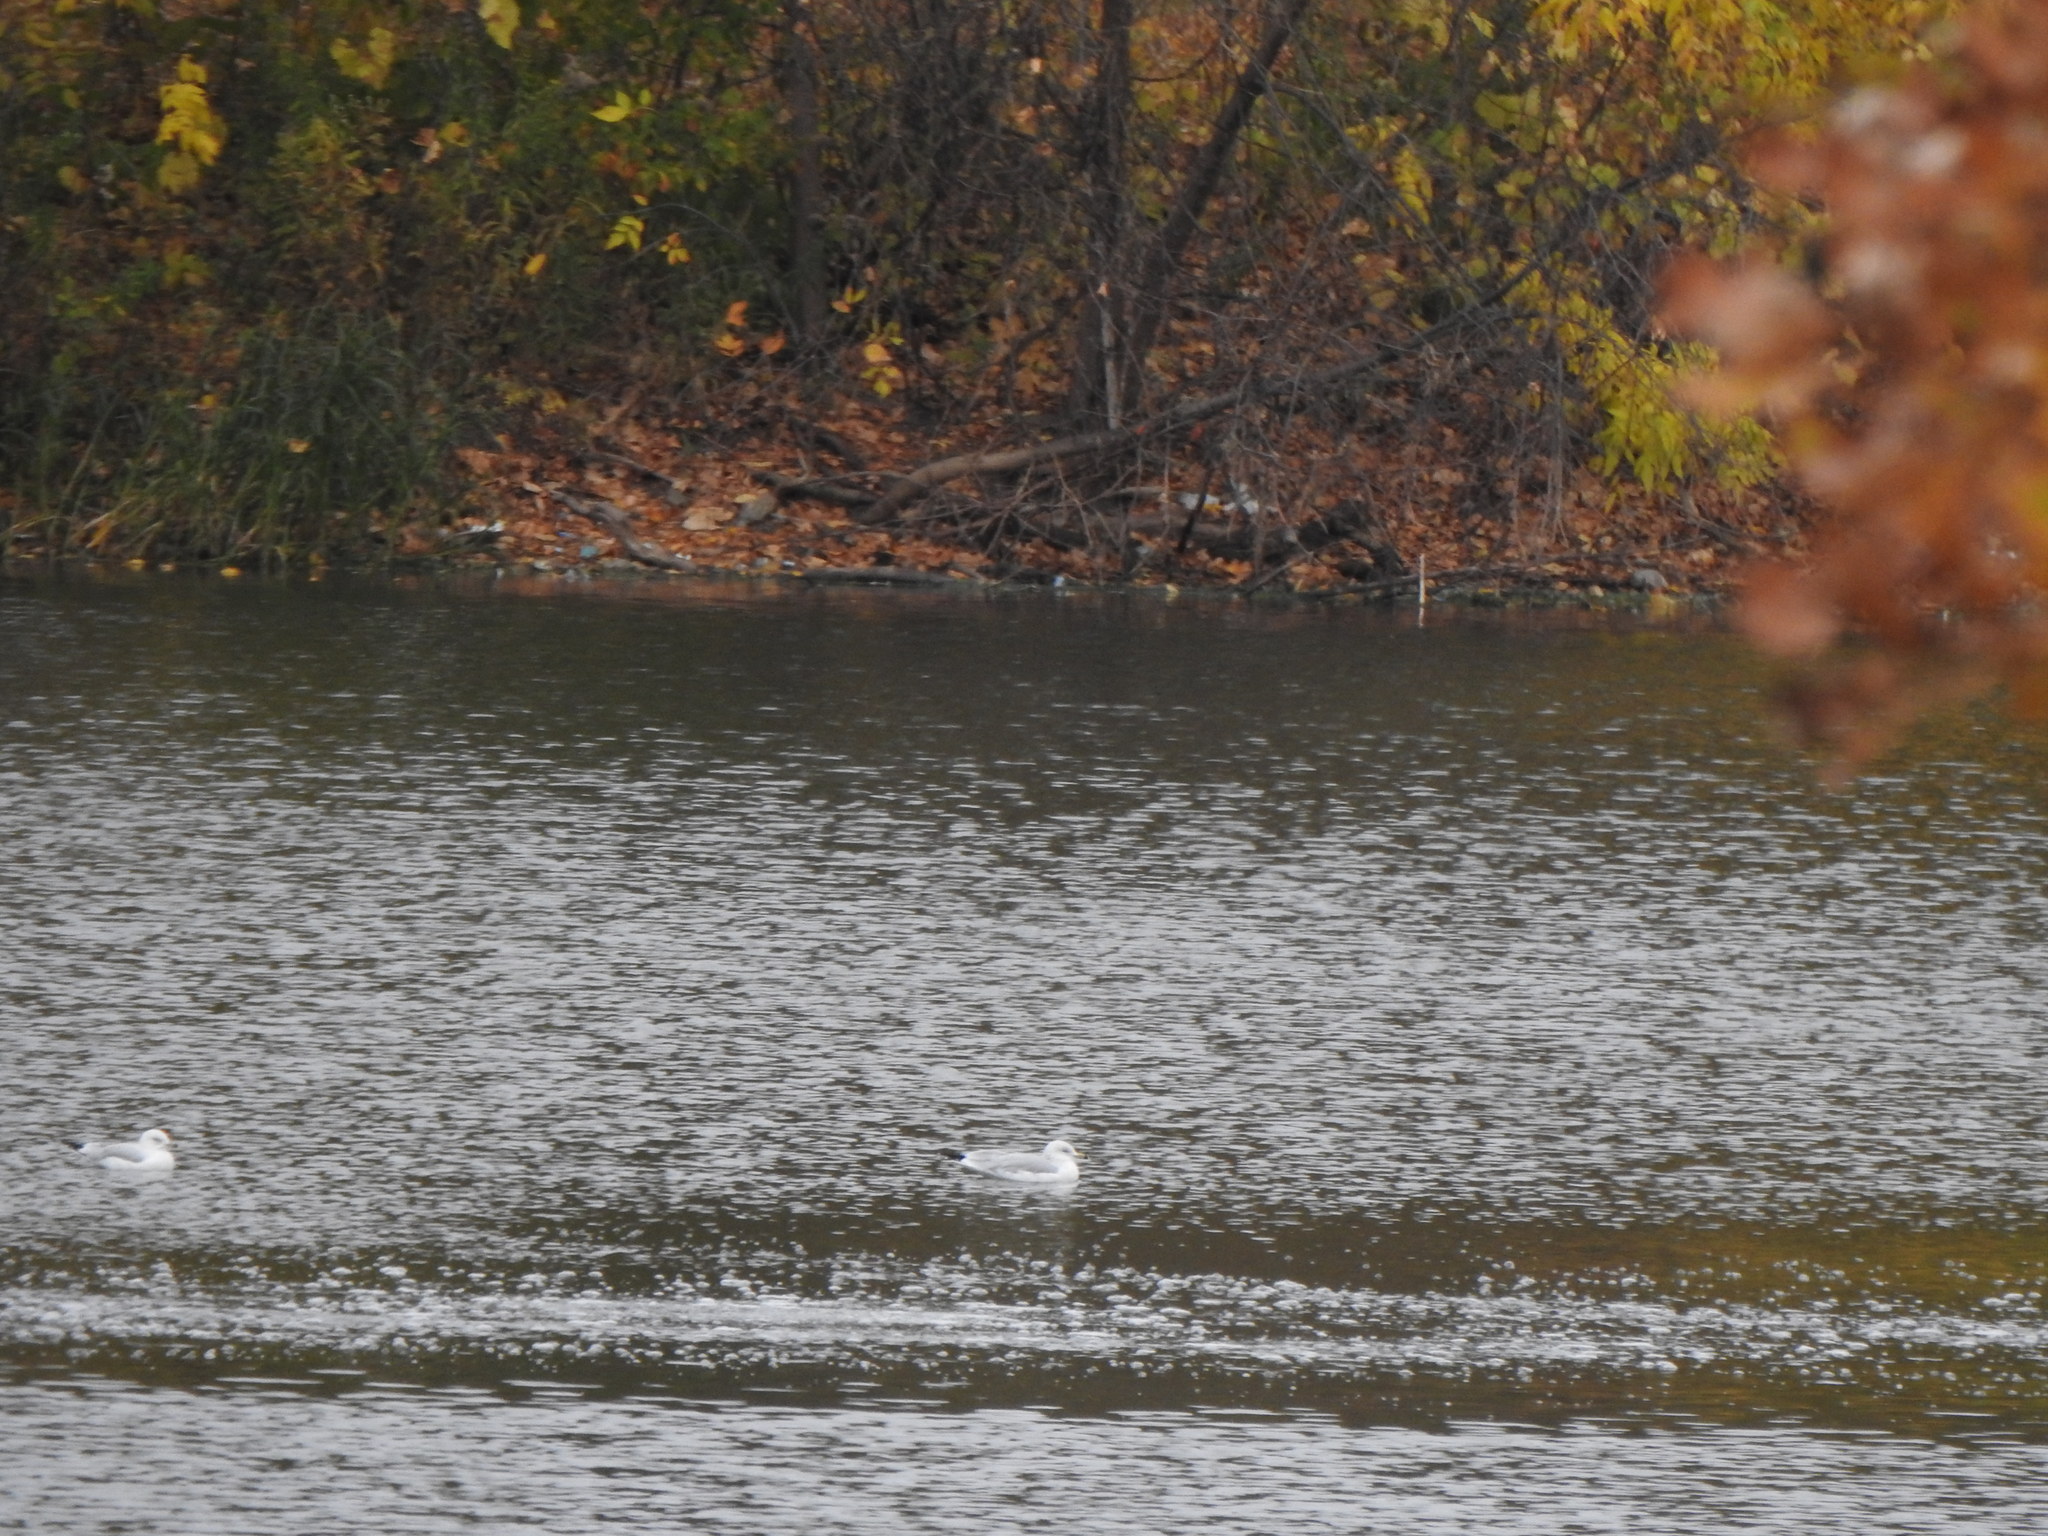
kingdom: Animalia
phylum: Chordata
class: Aves
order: Charadriiformes
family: Laridae
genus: Larus
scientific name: Larus delawarensis
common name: Ring-billed gull
